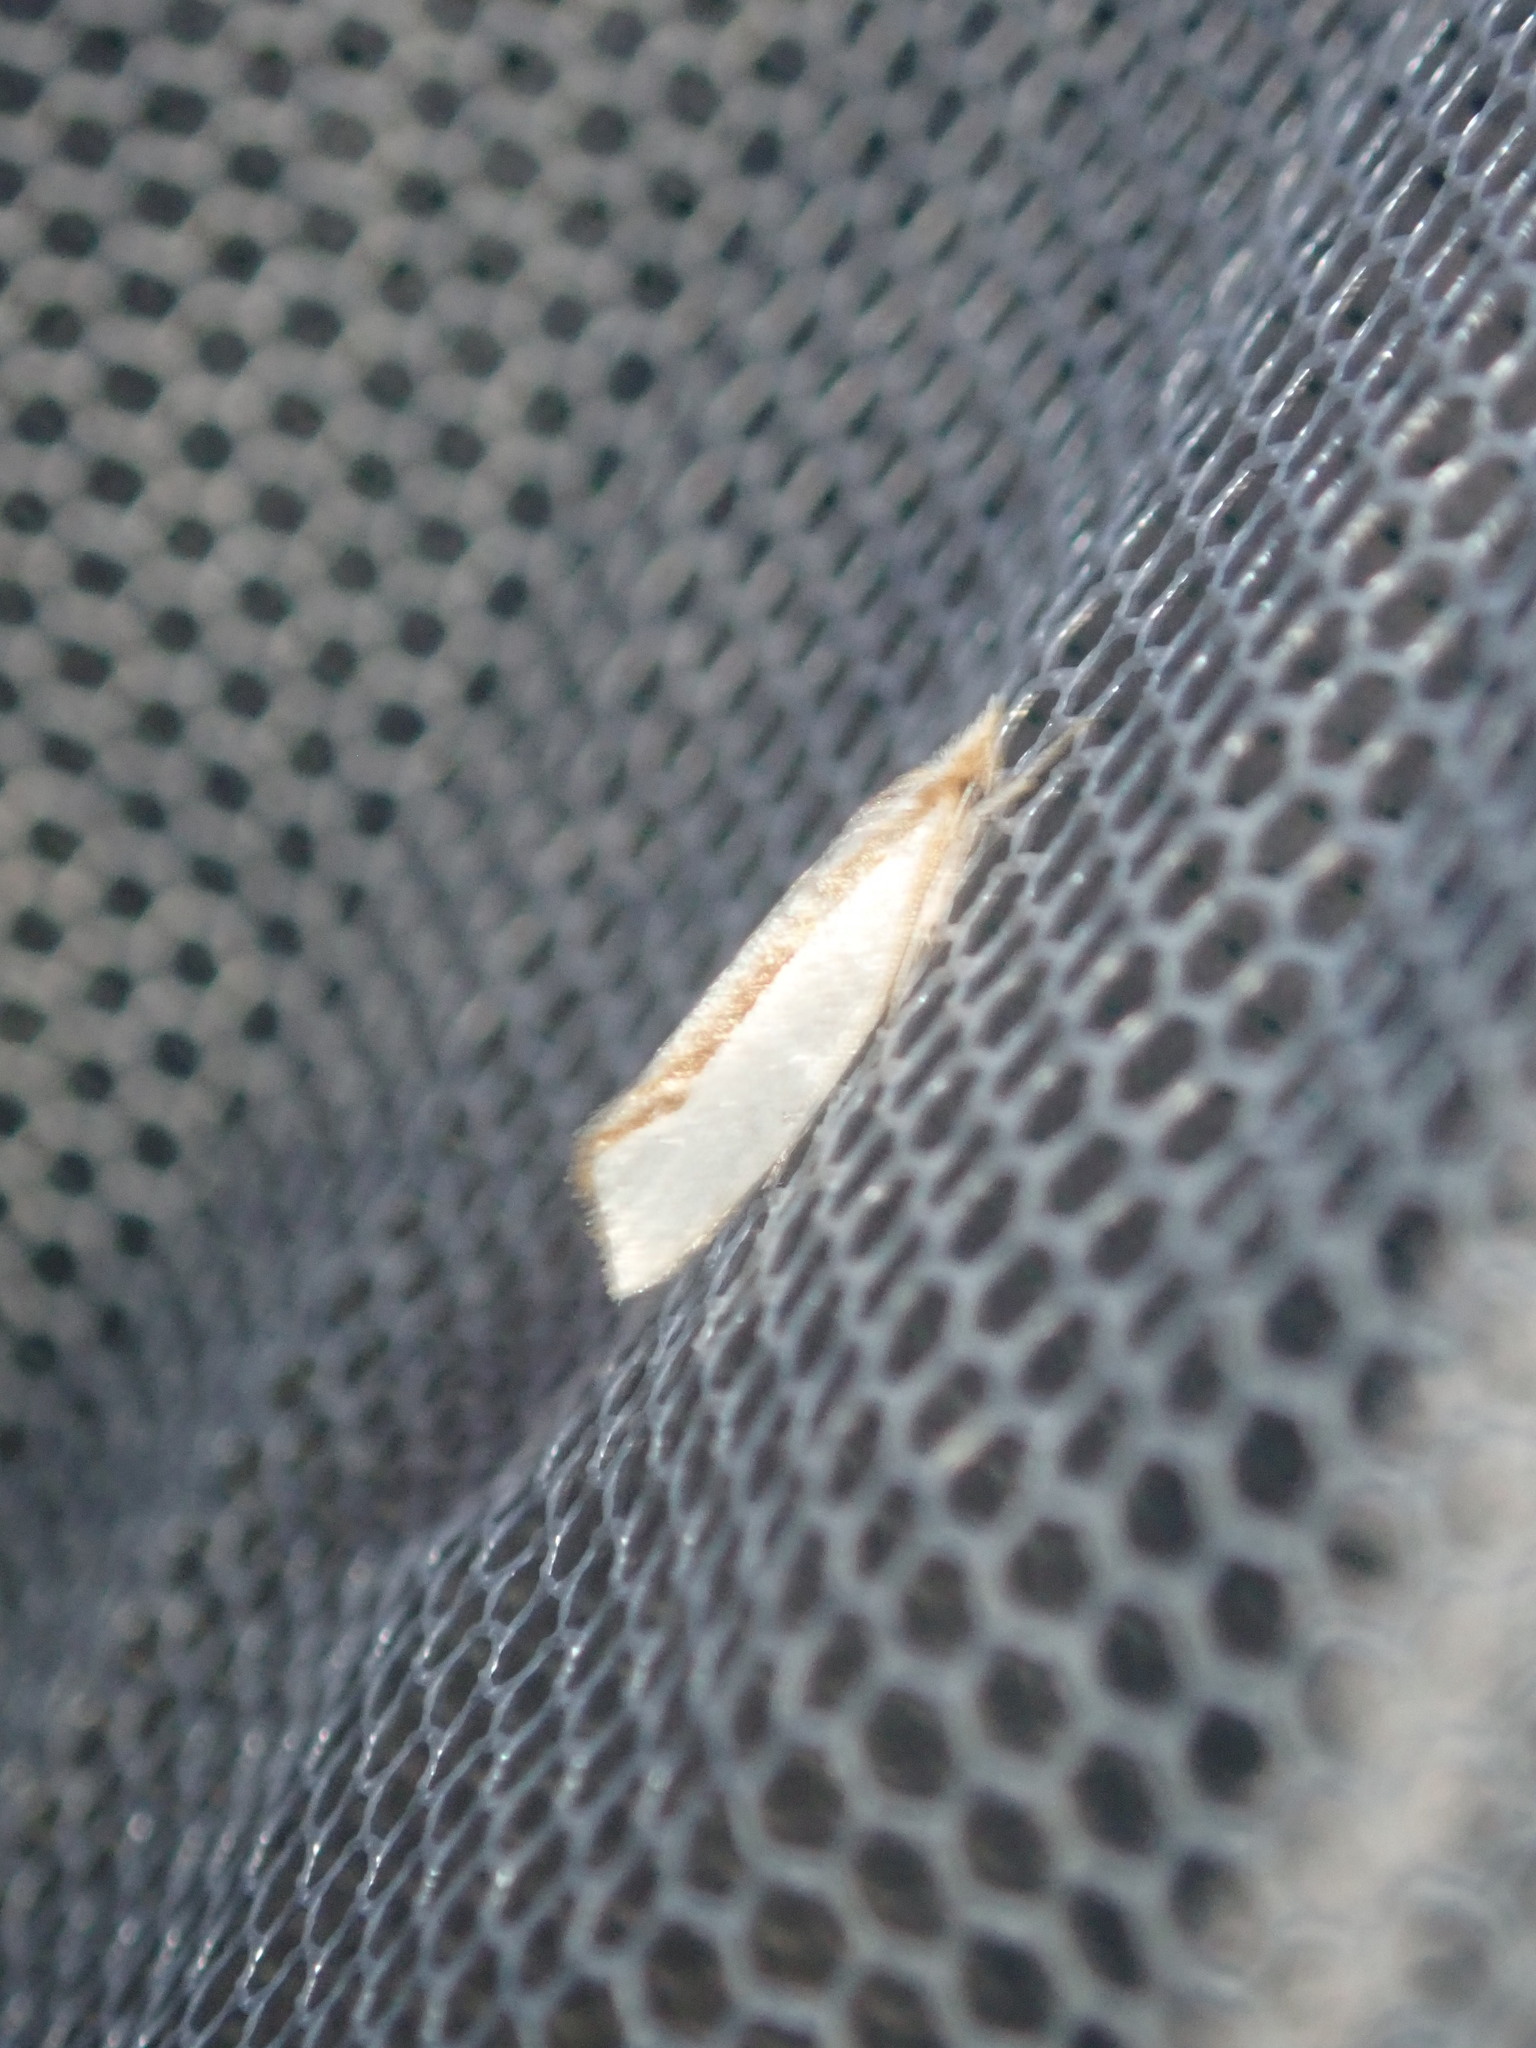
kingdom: Animalia
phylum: Arthropoda
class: Insecta
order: Lepidoptera
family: Depressariidae
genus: Thudaca
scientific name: Thudaca circumdatella
